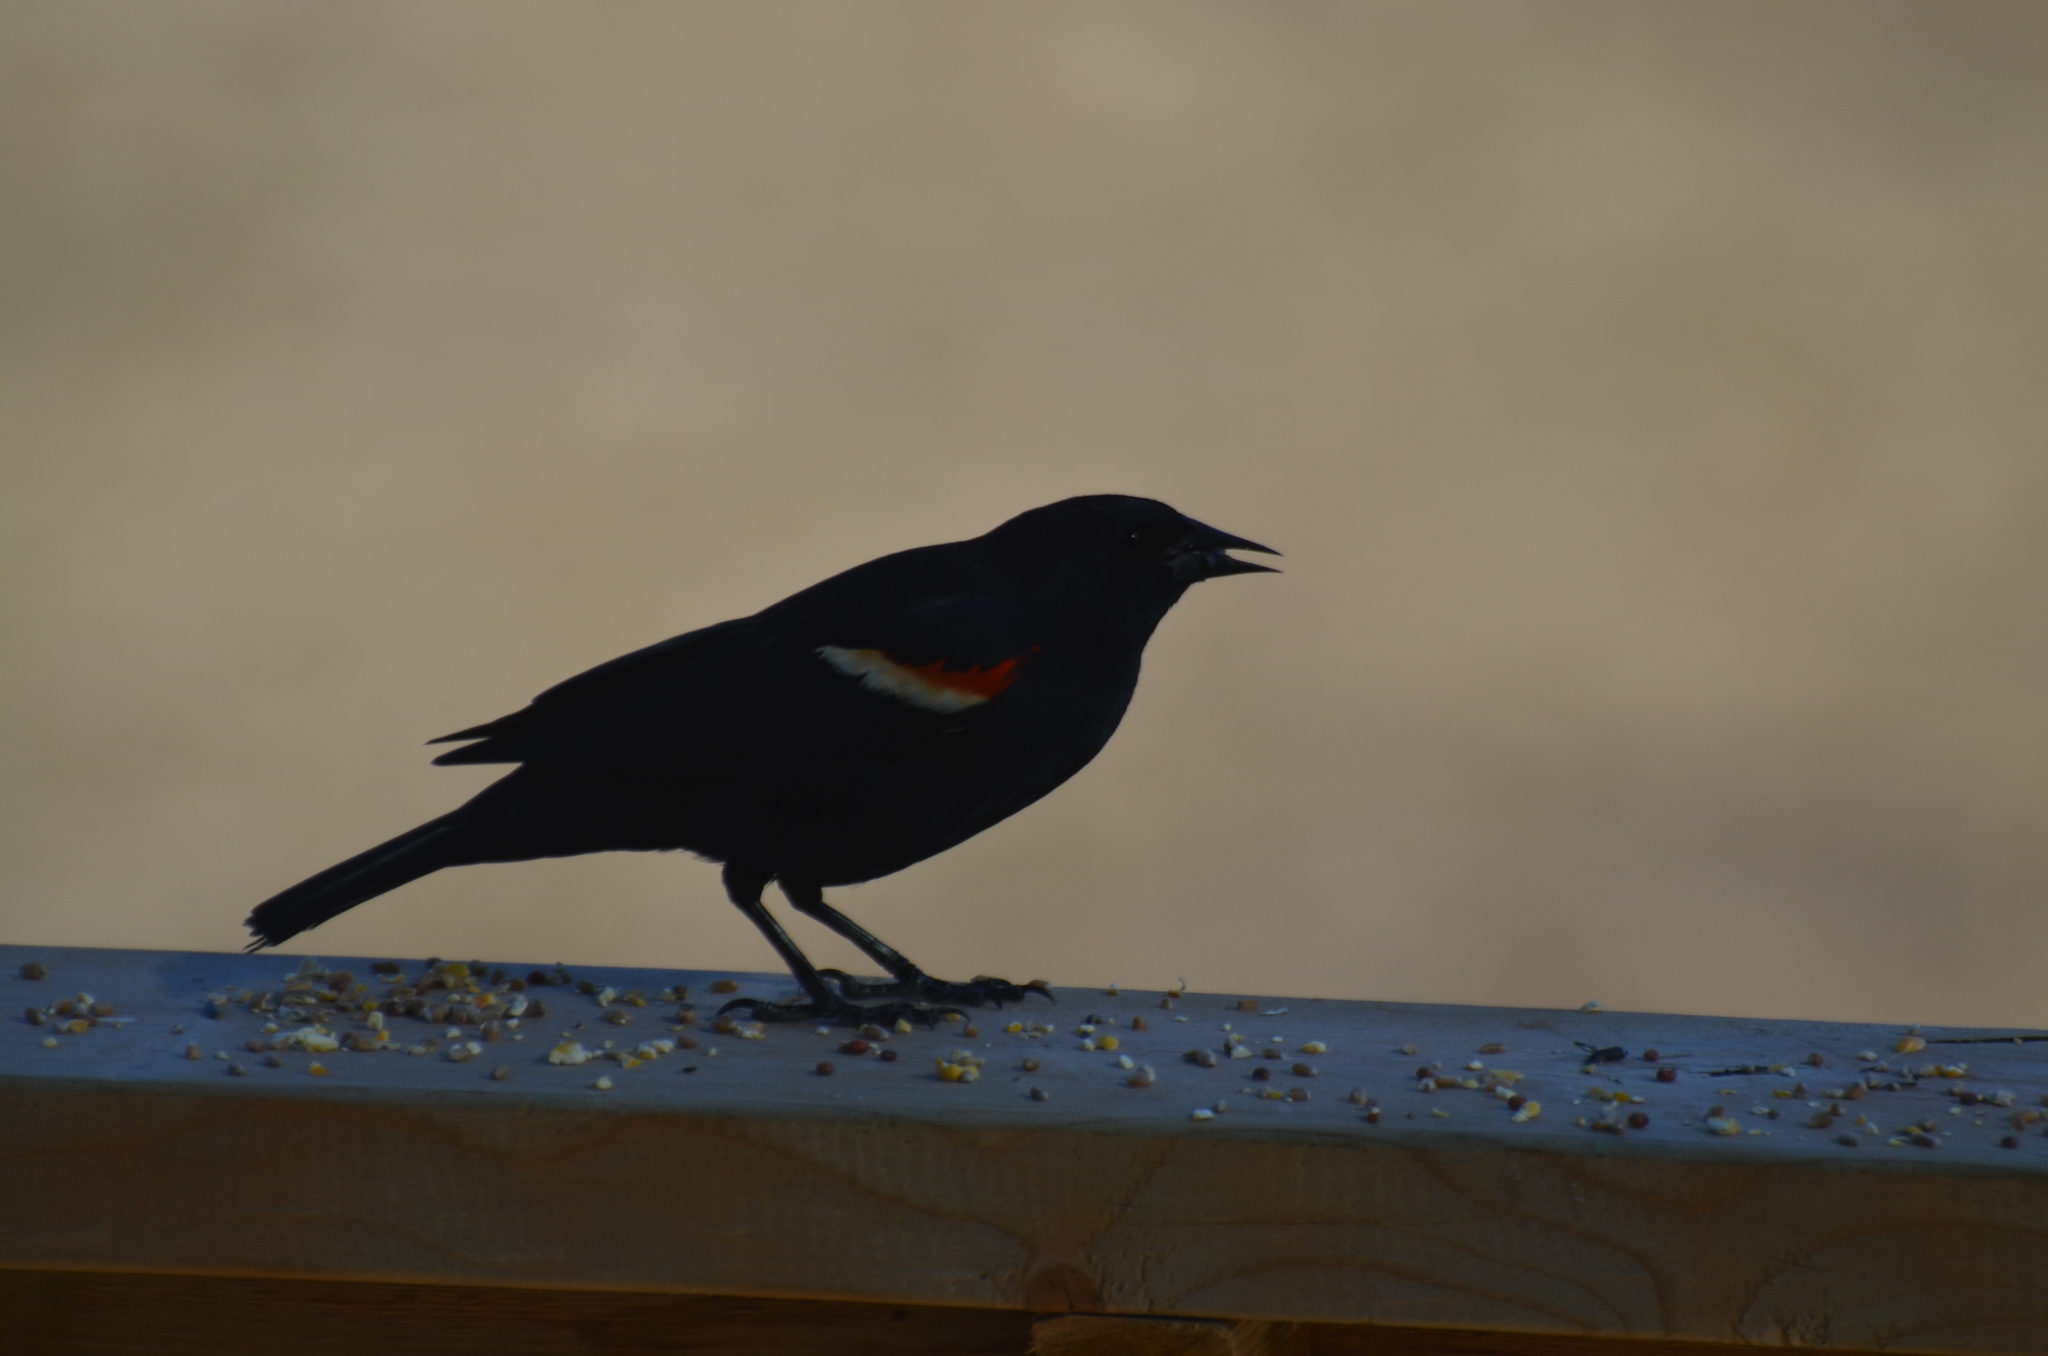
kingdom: Animalia
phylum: Chordata
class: Aves
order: Passeriformes
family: Icteridae
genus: Agelaius
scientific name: Agelaius phoeniceus
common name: Red-winged blackbird
